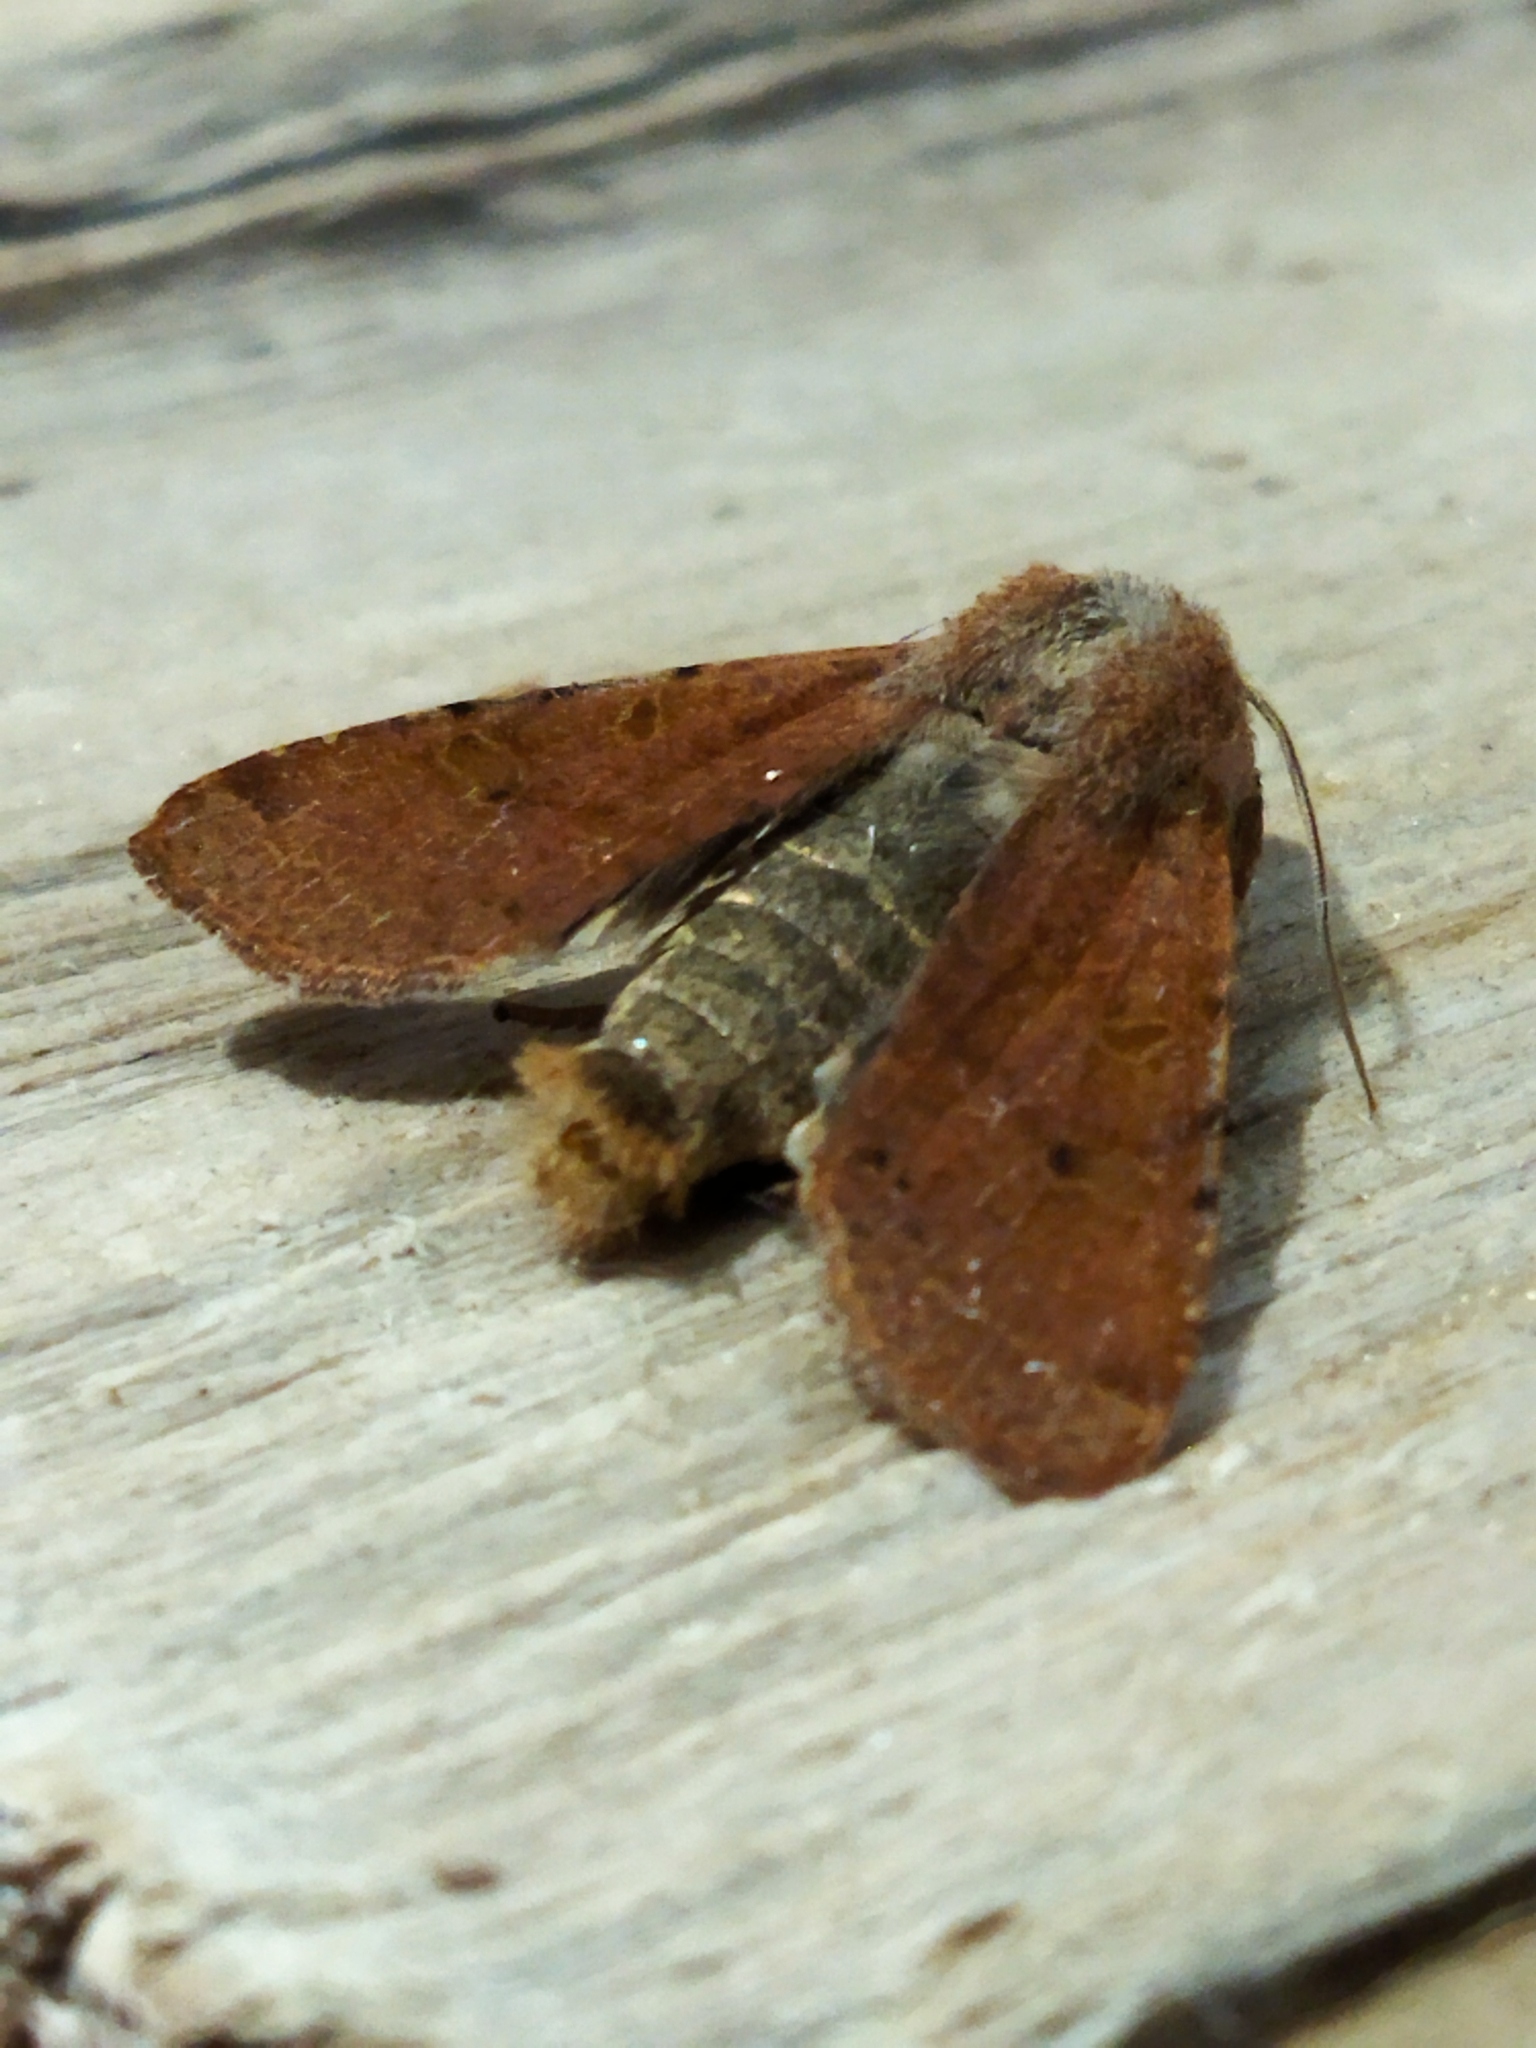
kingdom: Animalia
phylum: Arthropoda
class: Insecta
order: Lepidoptera
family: Noctuidae
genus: Agrochola
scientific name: Agrochola lychnidis
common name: Beaded chestnut
